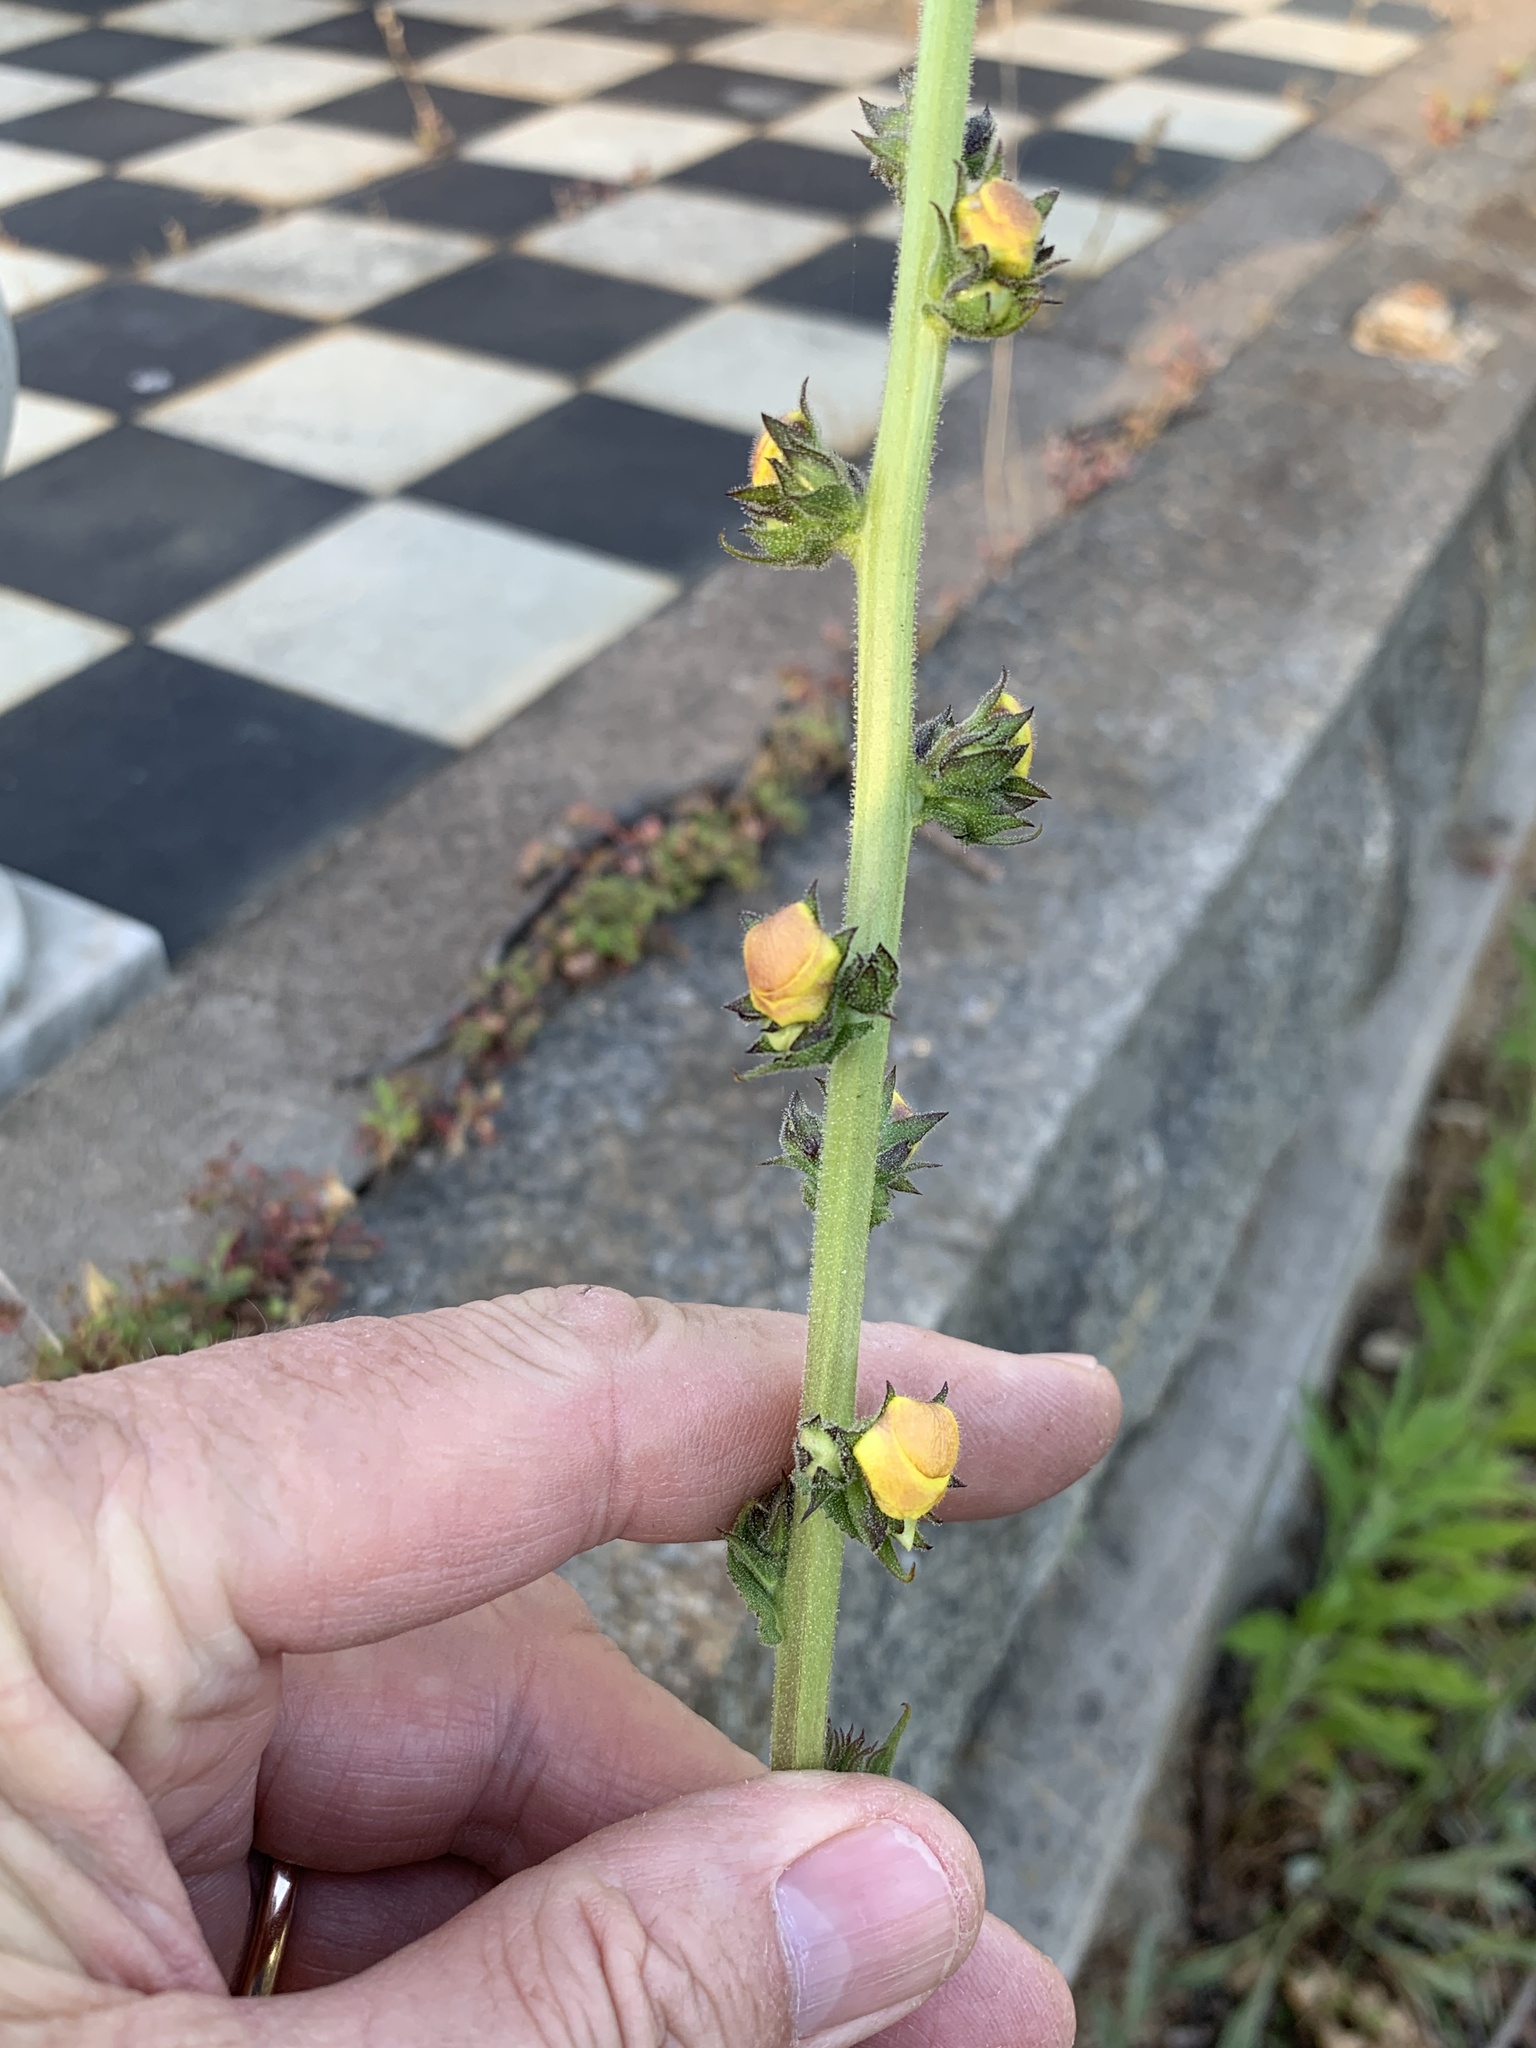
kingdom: Plantae
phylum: Tracheophyta
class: Magnoliopsida
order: Lamiales
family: Scrophulariaceae
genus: Verbascum
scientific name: Verbascum virgatum
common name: Twiggy mullein
